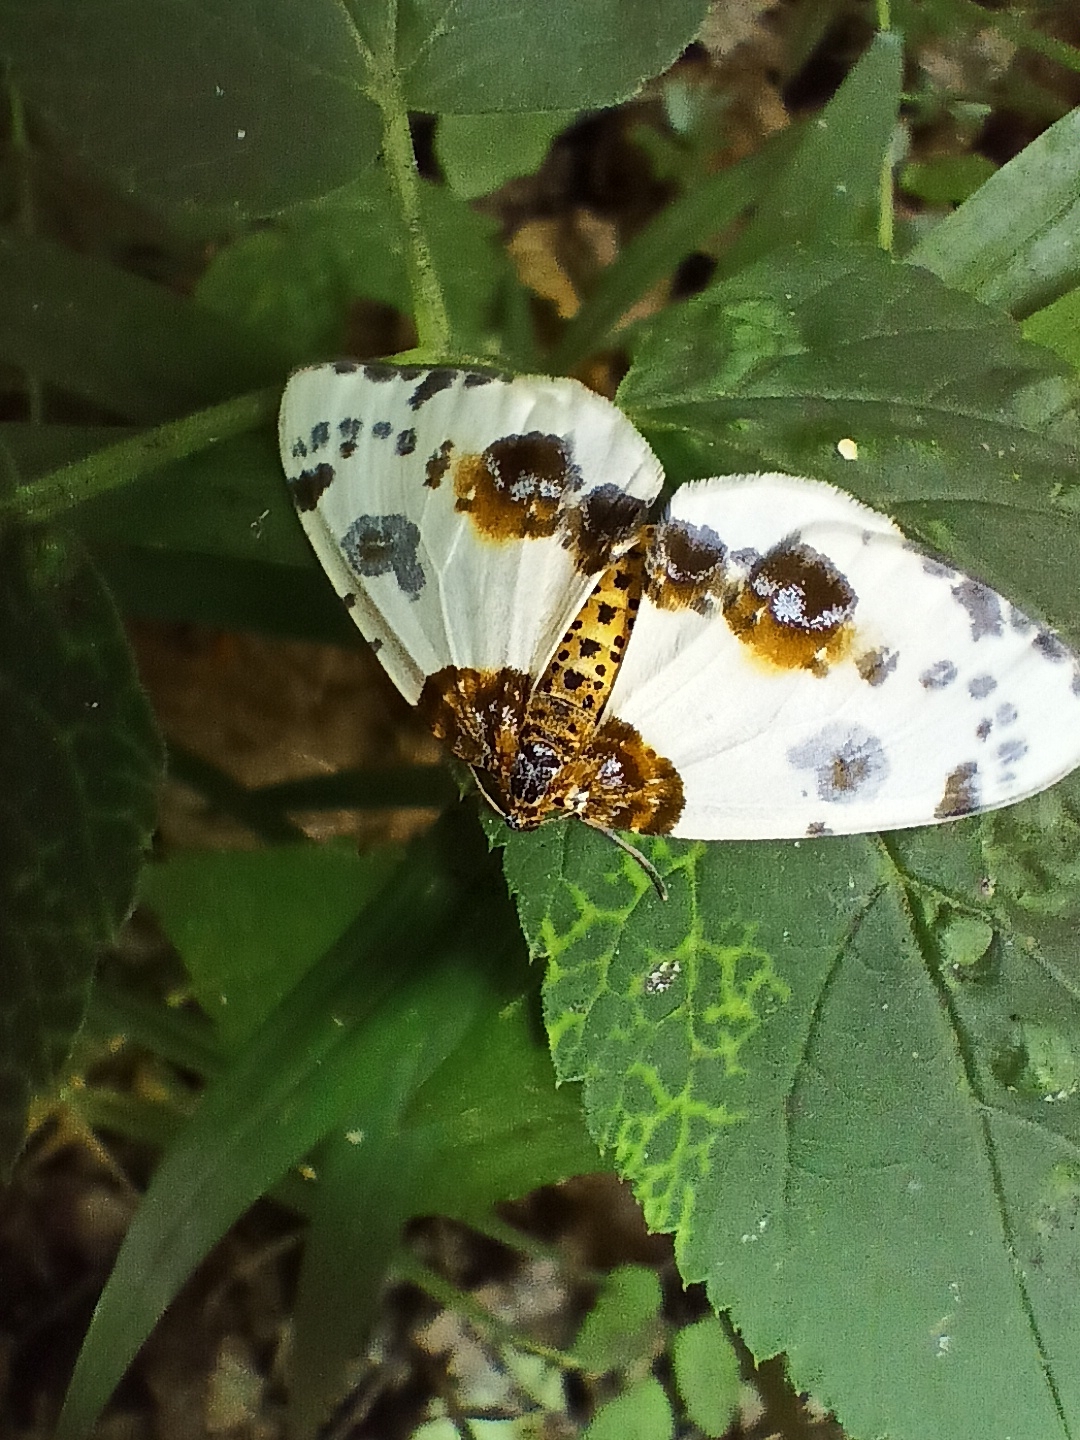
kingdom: Animalia
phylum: Arthropoda
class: Insecta
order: Lepidoptera
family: Geometridae
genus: Abraxas
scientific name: Abraxas sylvata
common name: Clouded magpie
